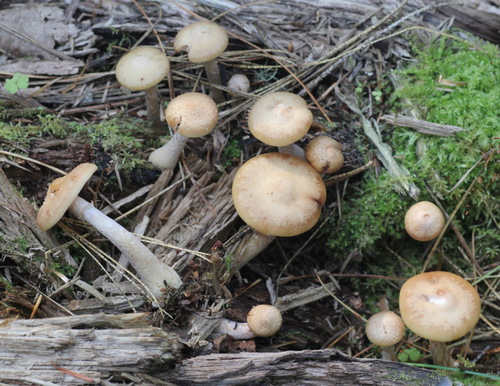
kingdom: Fungi
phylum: Basidiomycota
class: Agaricomycetes
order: Agaricales
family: Physalacriaceae
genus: Armillaria
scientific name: Armillaria cepistipes
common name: Mullet honey fungus
